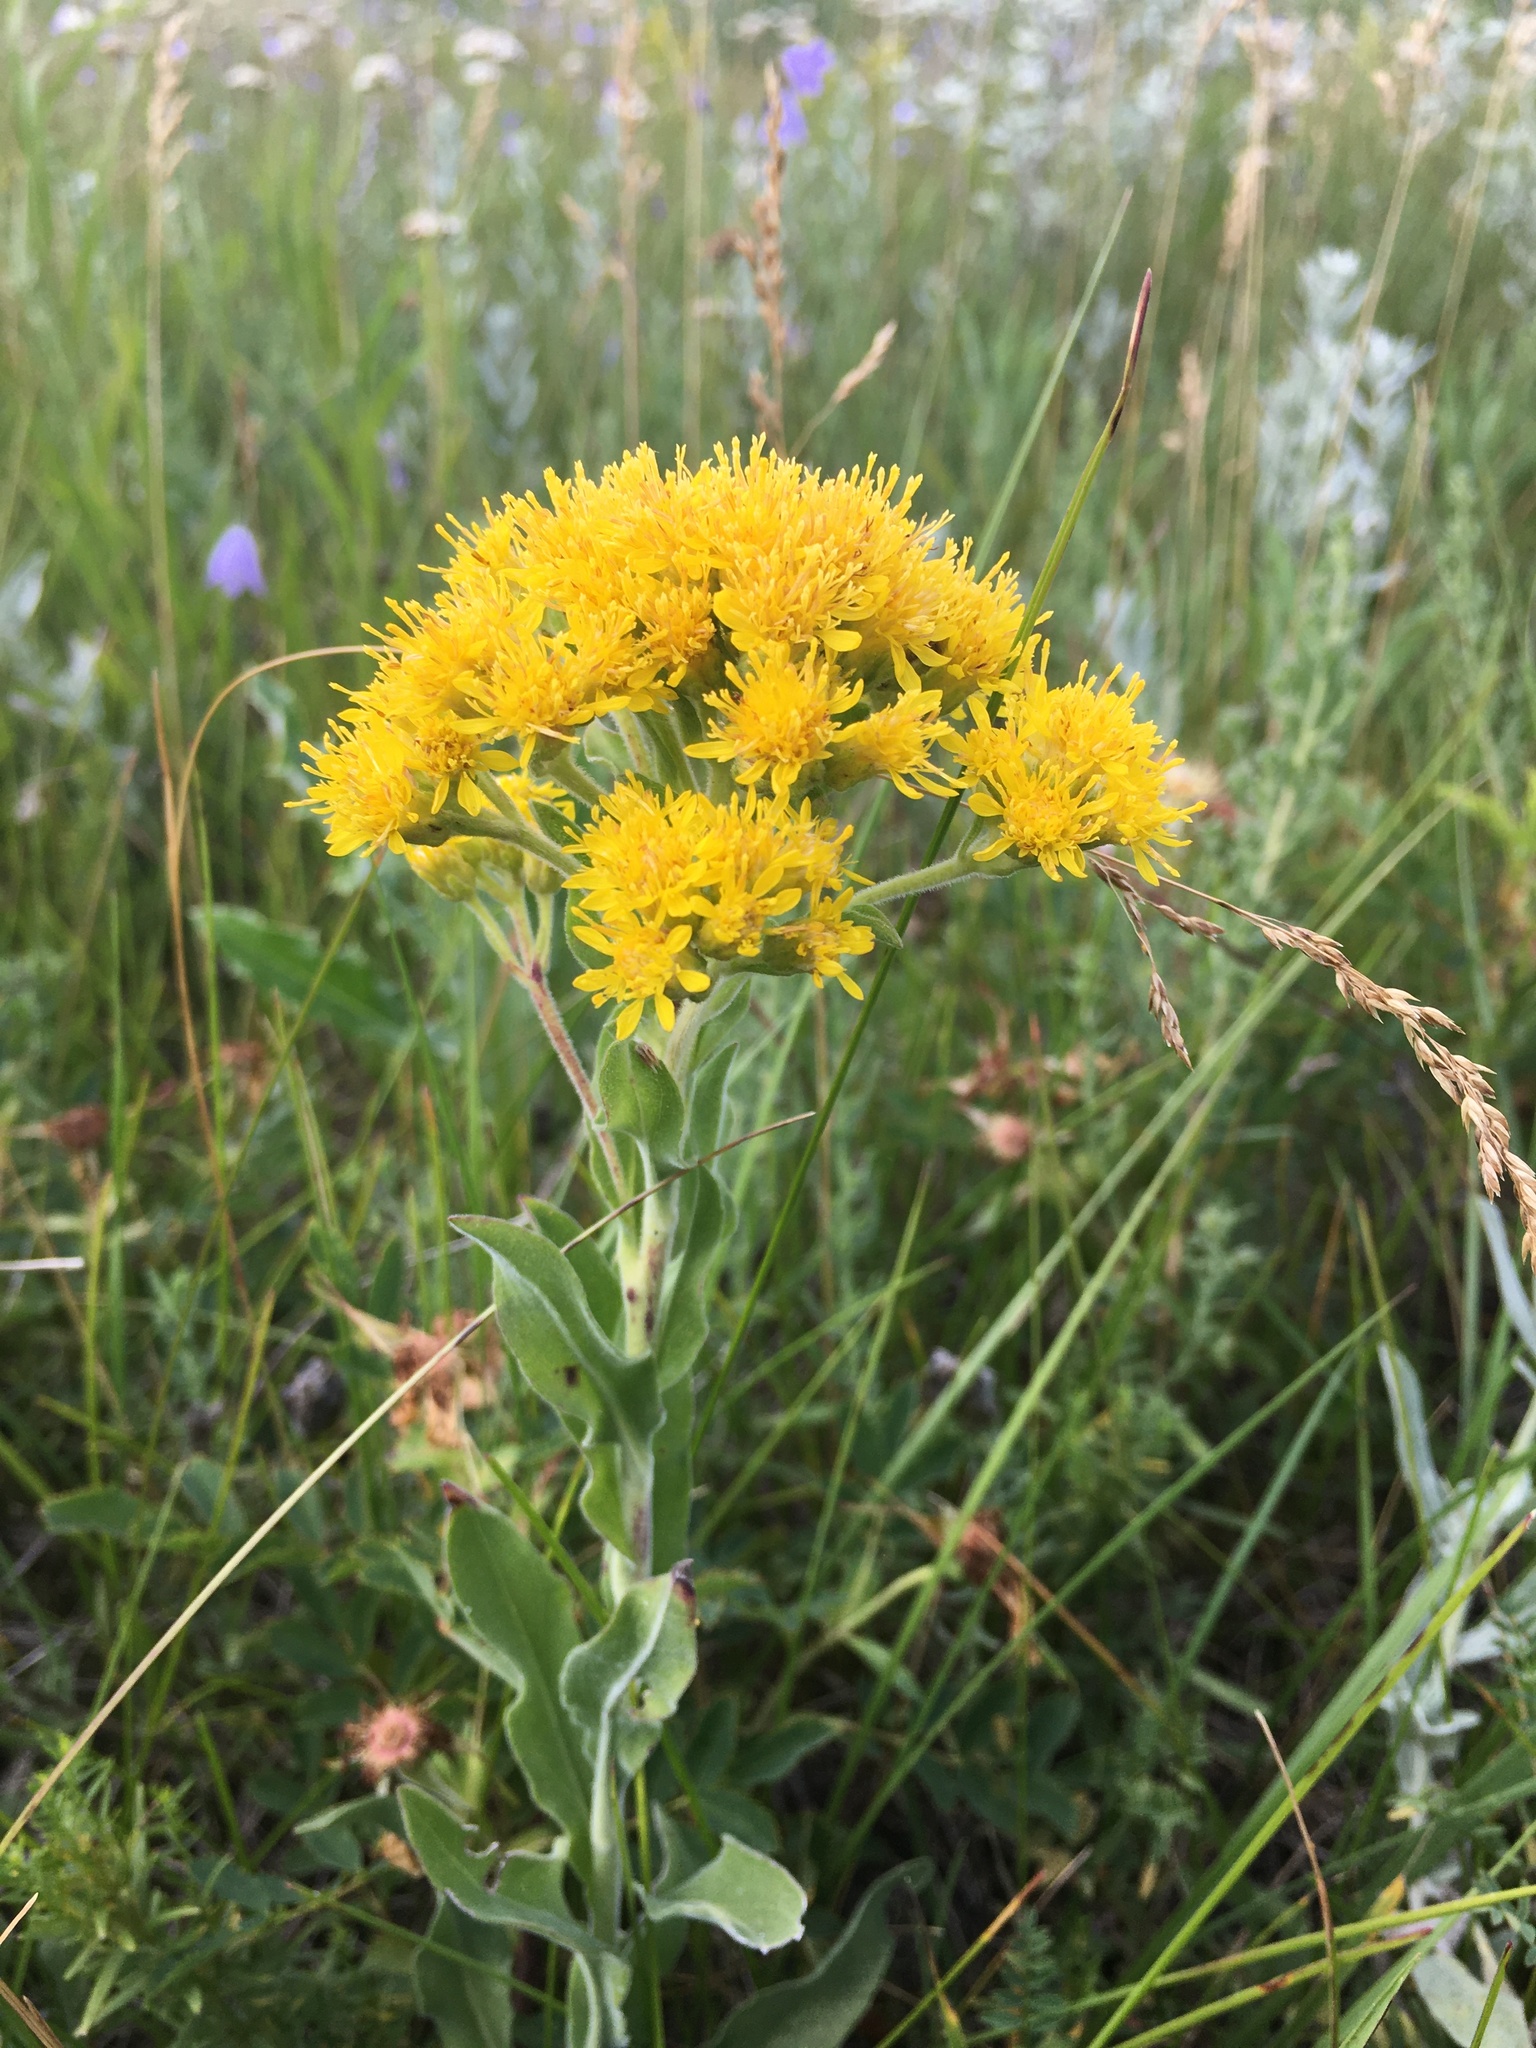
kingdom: Plantae
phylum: Tracheophyta
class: Magnoliopsida
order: Asterales
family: Asteraceae
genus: Solidago
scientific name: Solidago rigida
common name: Rigid goldenrod
